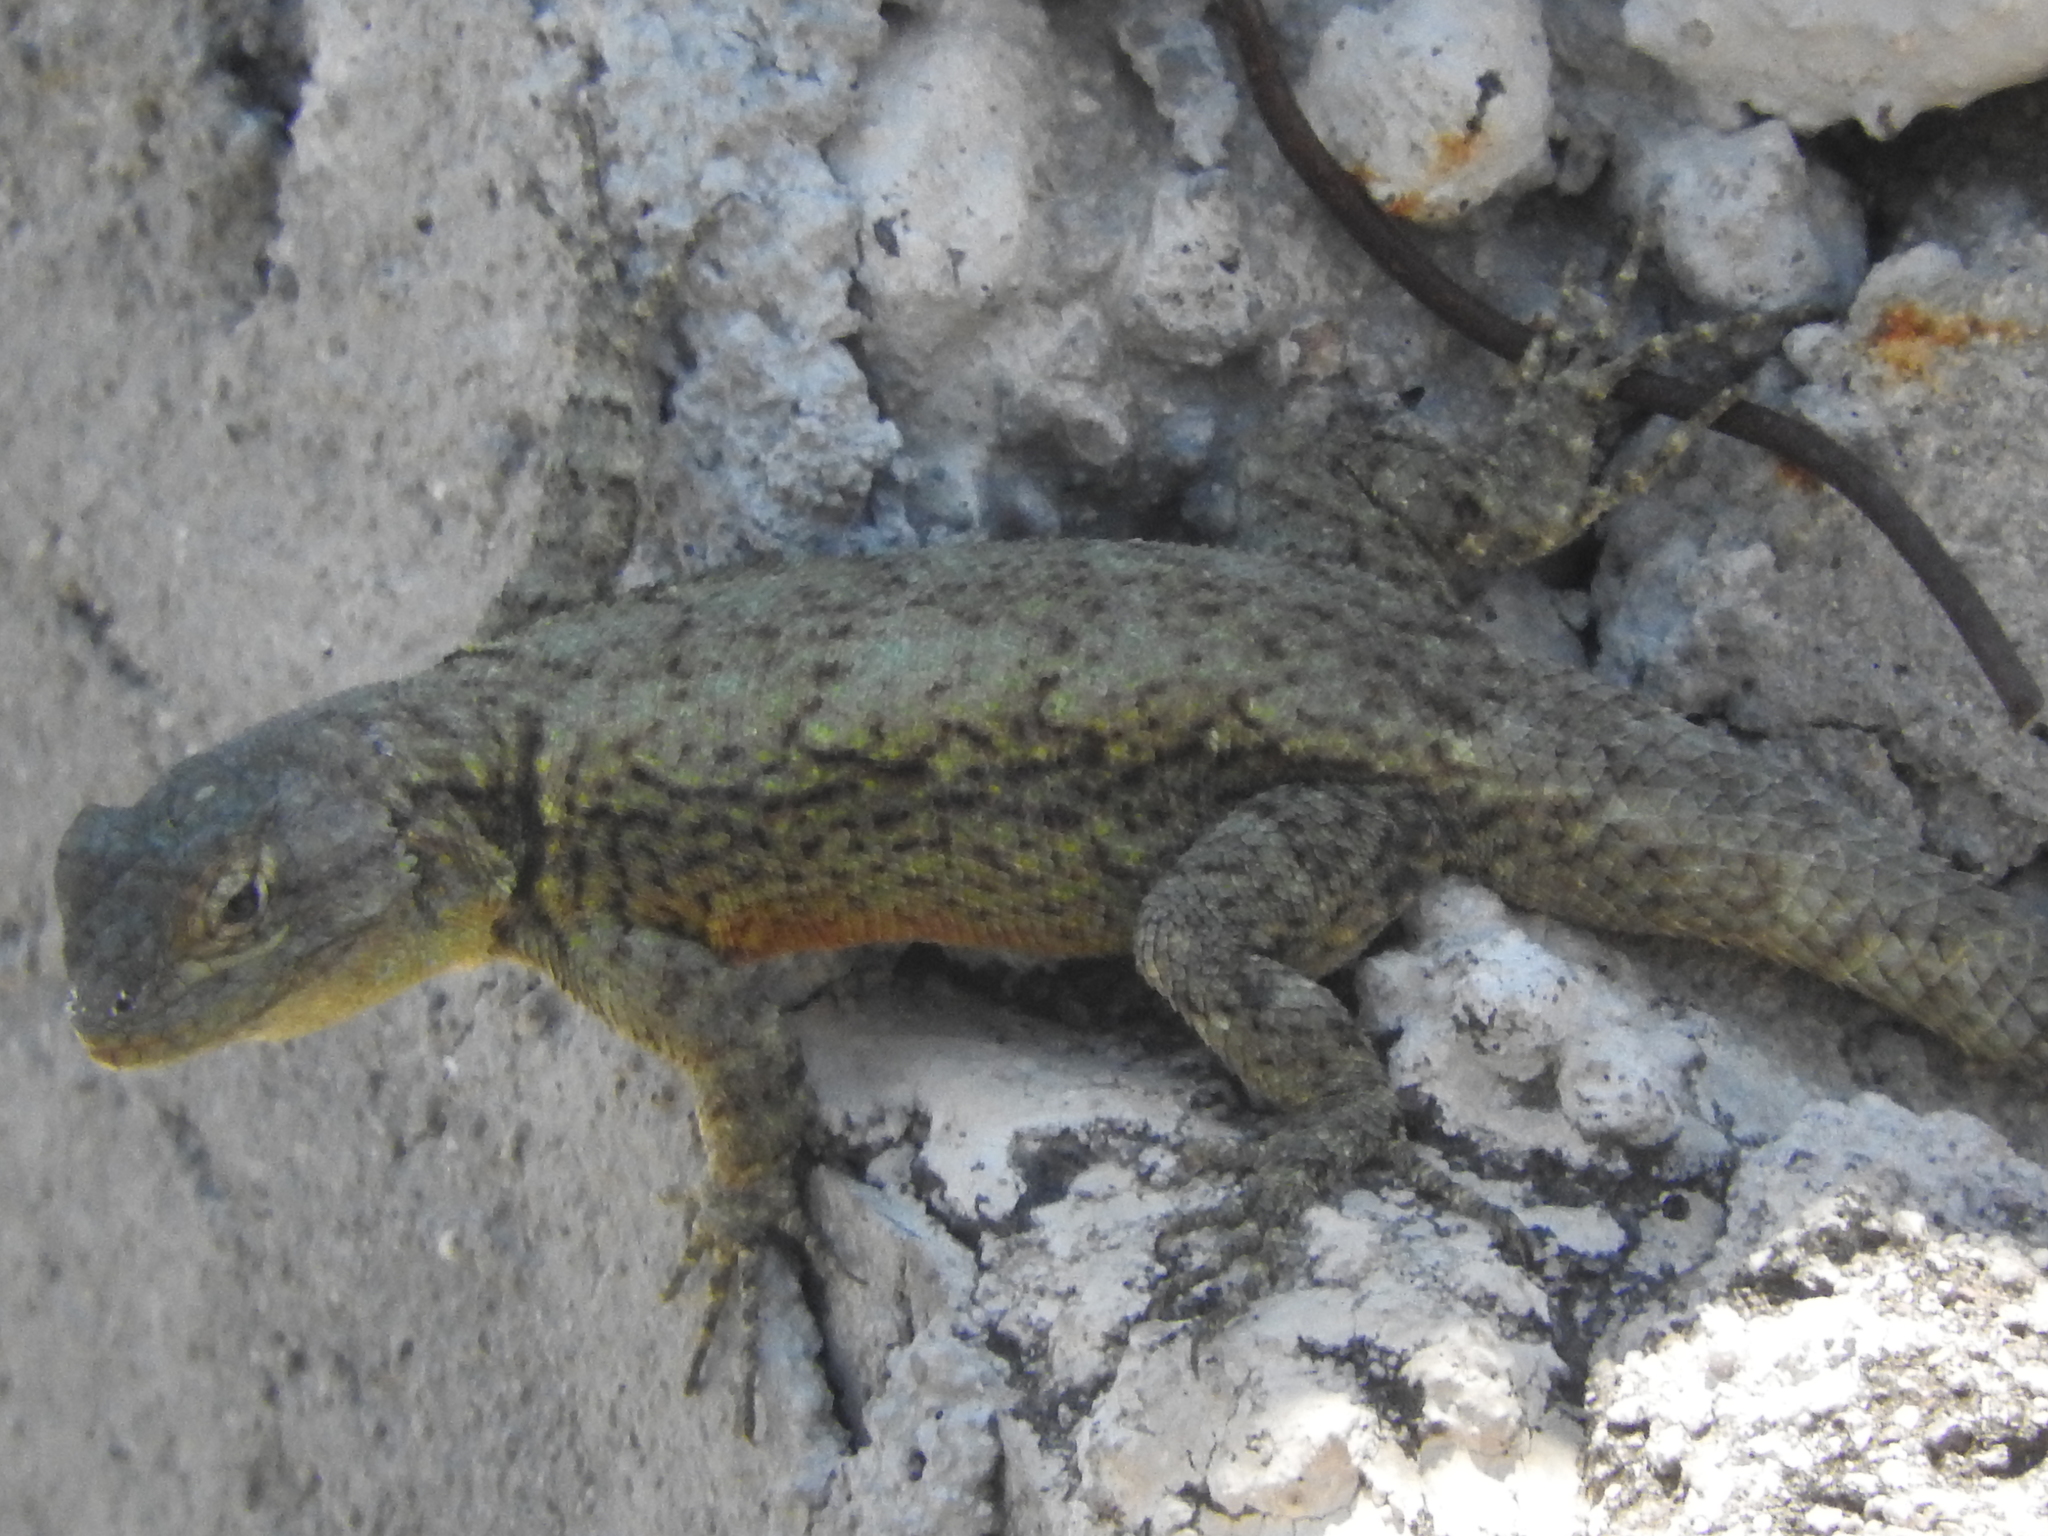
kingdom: Animalia
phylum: Chordata
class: Squamata
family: Phrynosomatidae
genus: Sceloporus
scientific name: Sceloporus grammicus
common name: Mesquite lizard
